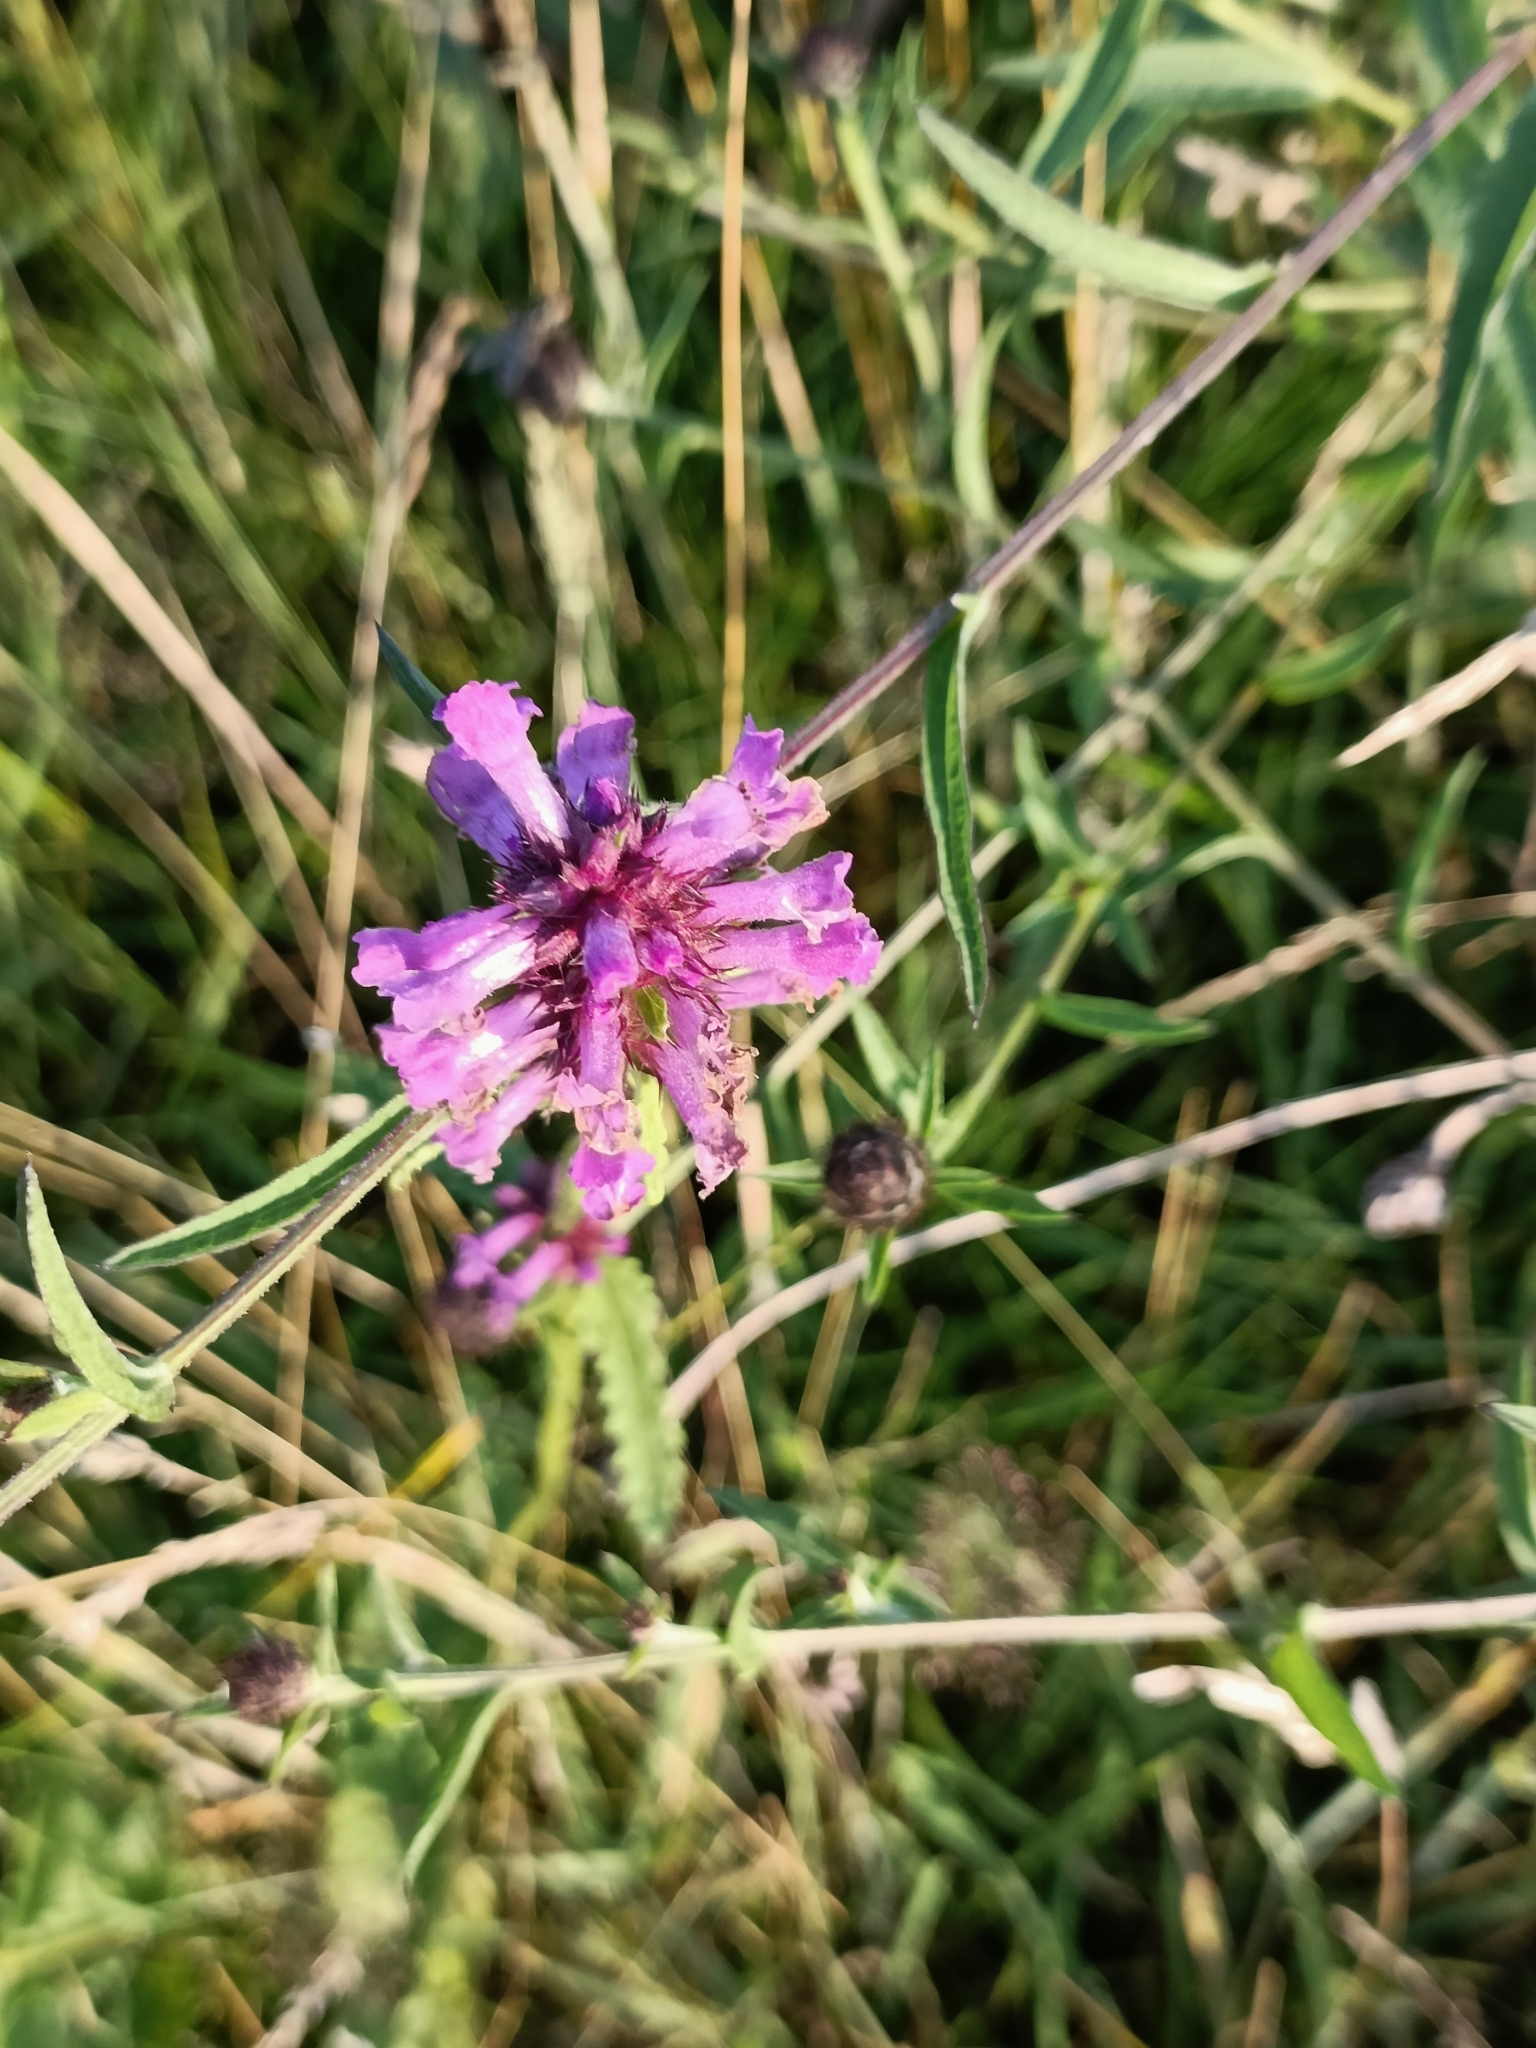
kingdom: Plantae
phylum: Tracheophyta
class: Magnoliopsida
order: Lamiales
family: Lamiaceae
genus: Betonica
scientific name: Betonica officinalis
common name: Bishop's-wort
